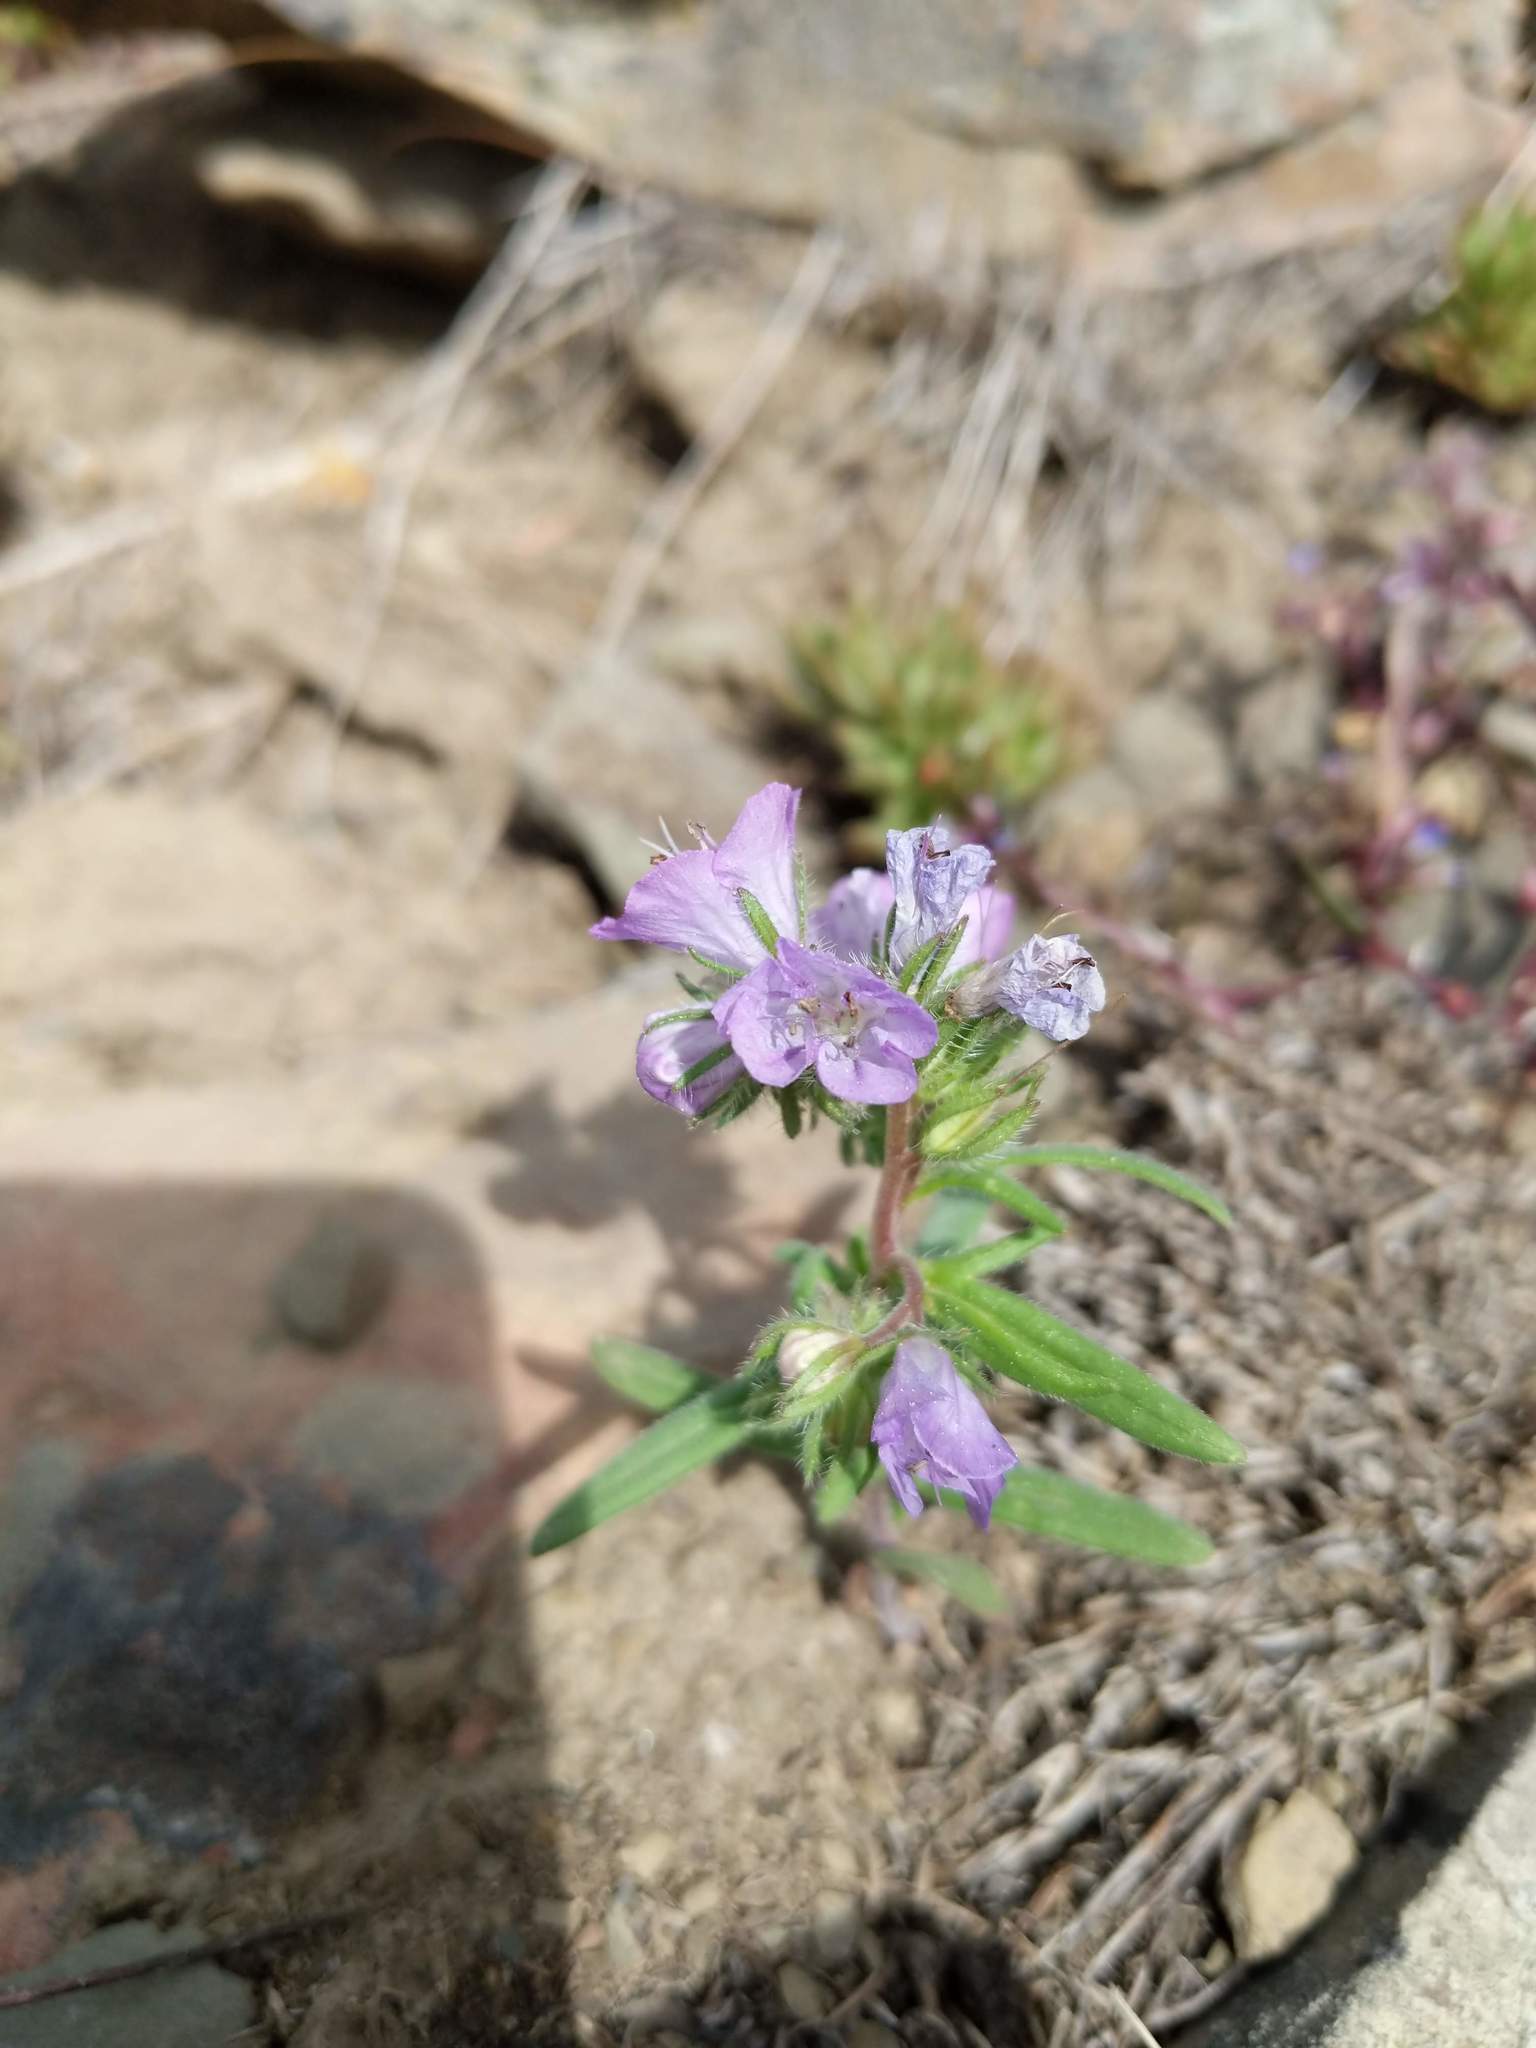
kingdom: Plantae
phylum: Tracheophyta
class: Magnoliopsida
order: Boraginales
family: Hydrophyllaceae
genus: Phacelia
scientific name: Phacelia linearis
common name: Linear-leaved phacelia
